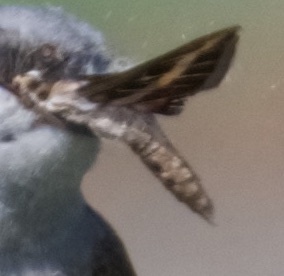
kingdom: Animalia
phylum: Arthropoda
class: Insecta
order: Lepidoptera
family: Sphingidae
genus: Hyles
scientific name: Hyles lineata
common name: White-lined sphinx
